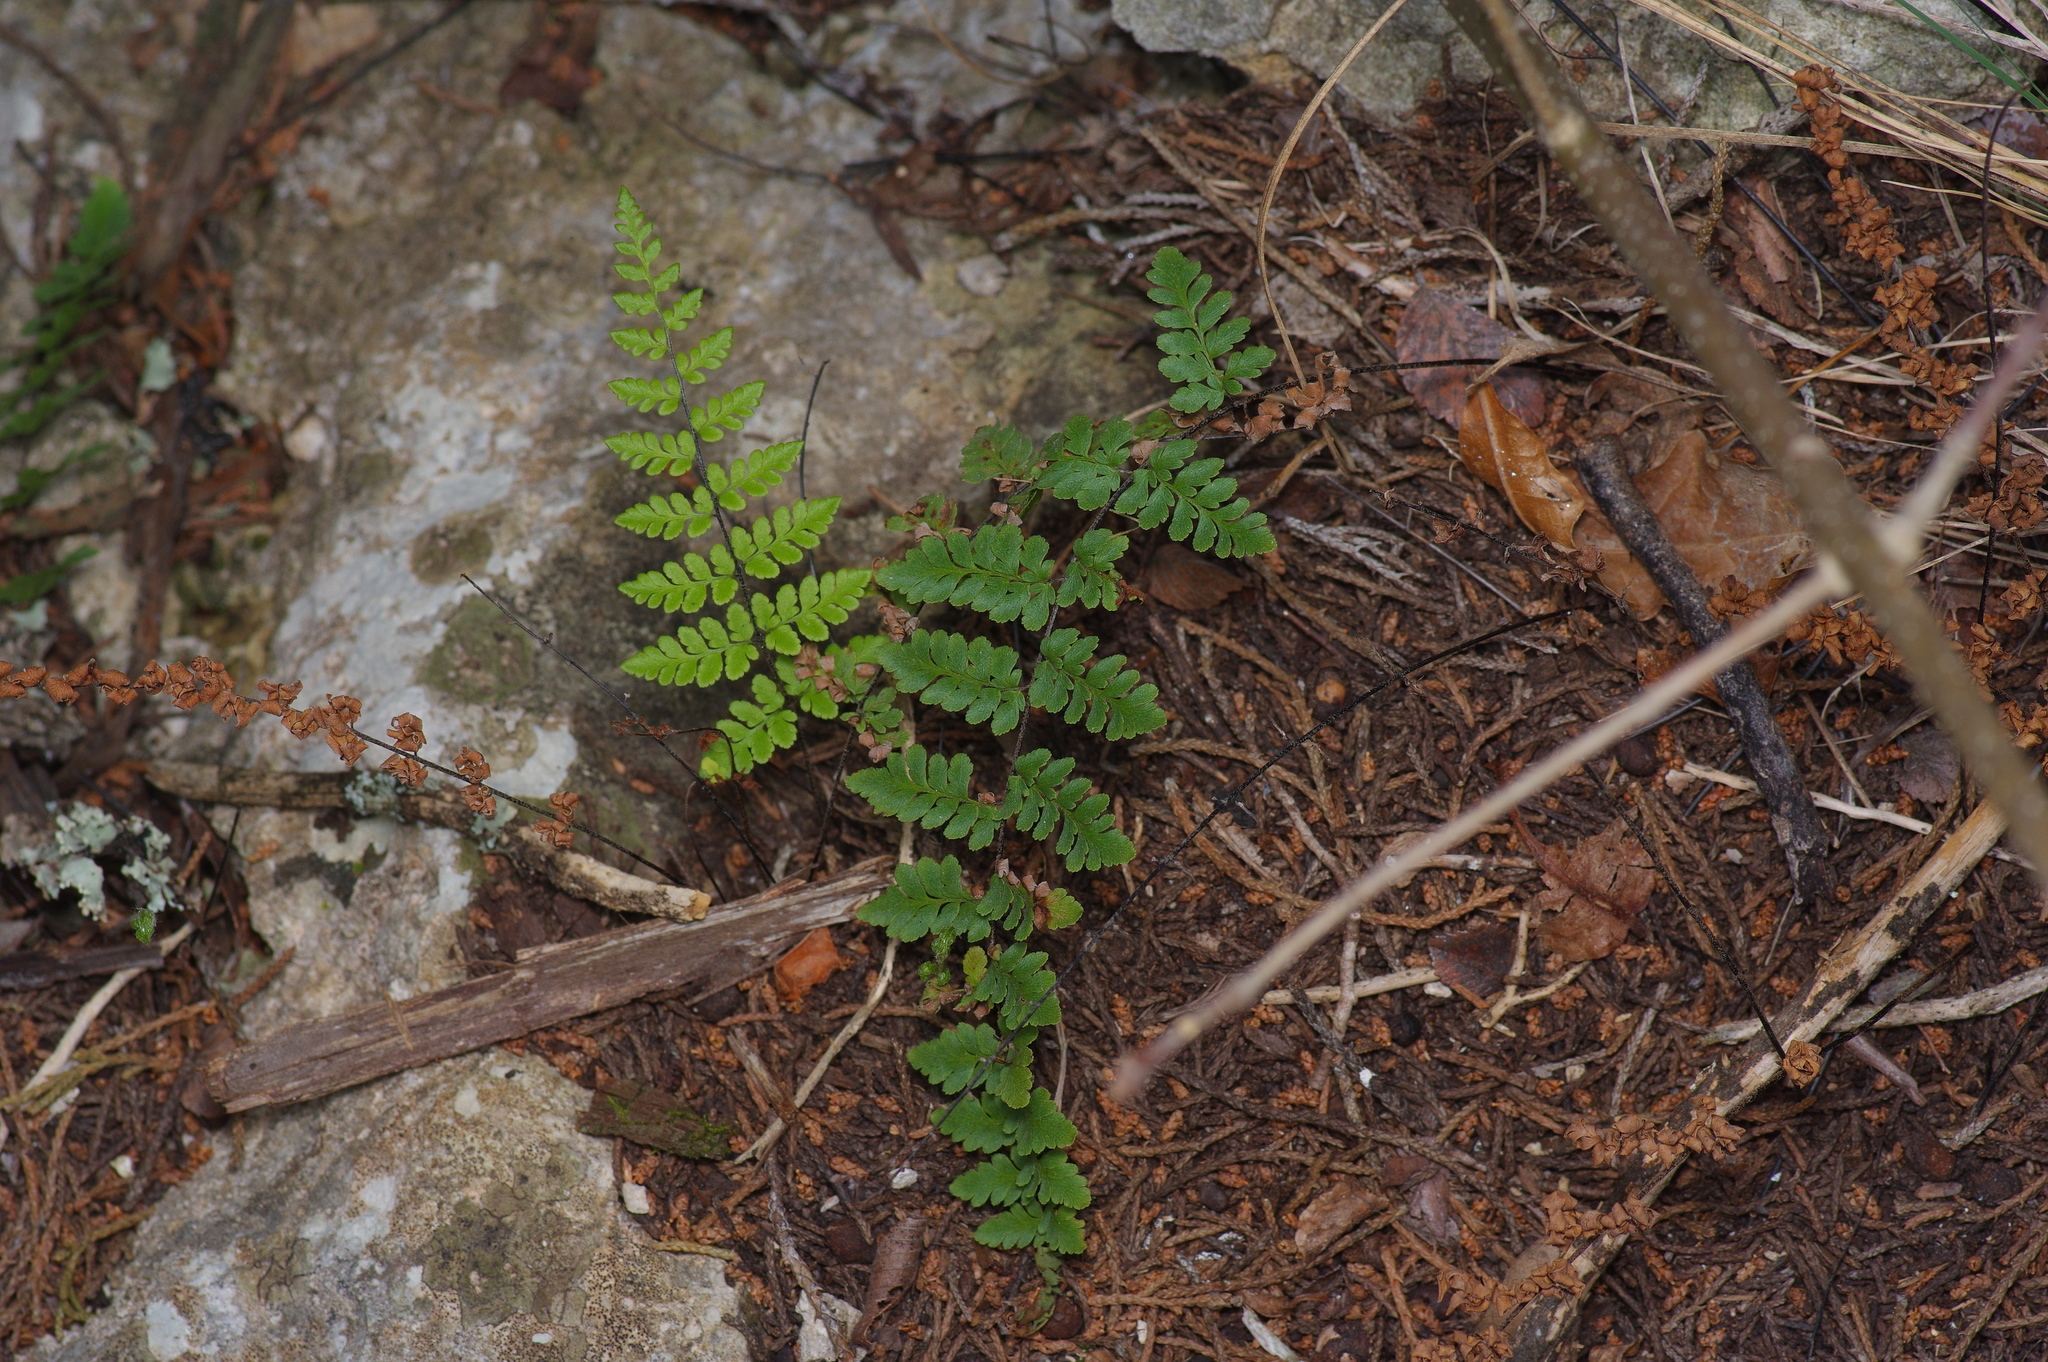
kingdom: Plantae
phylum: Tracheophyta
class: Polypodiopsida
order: Polypodiales
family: Pteridaceae
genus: Myriopteris
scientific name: Myriopteris alabamensis
